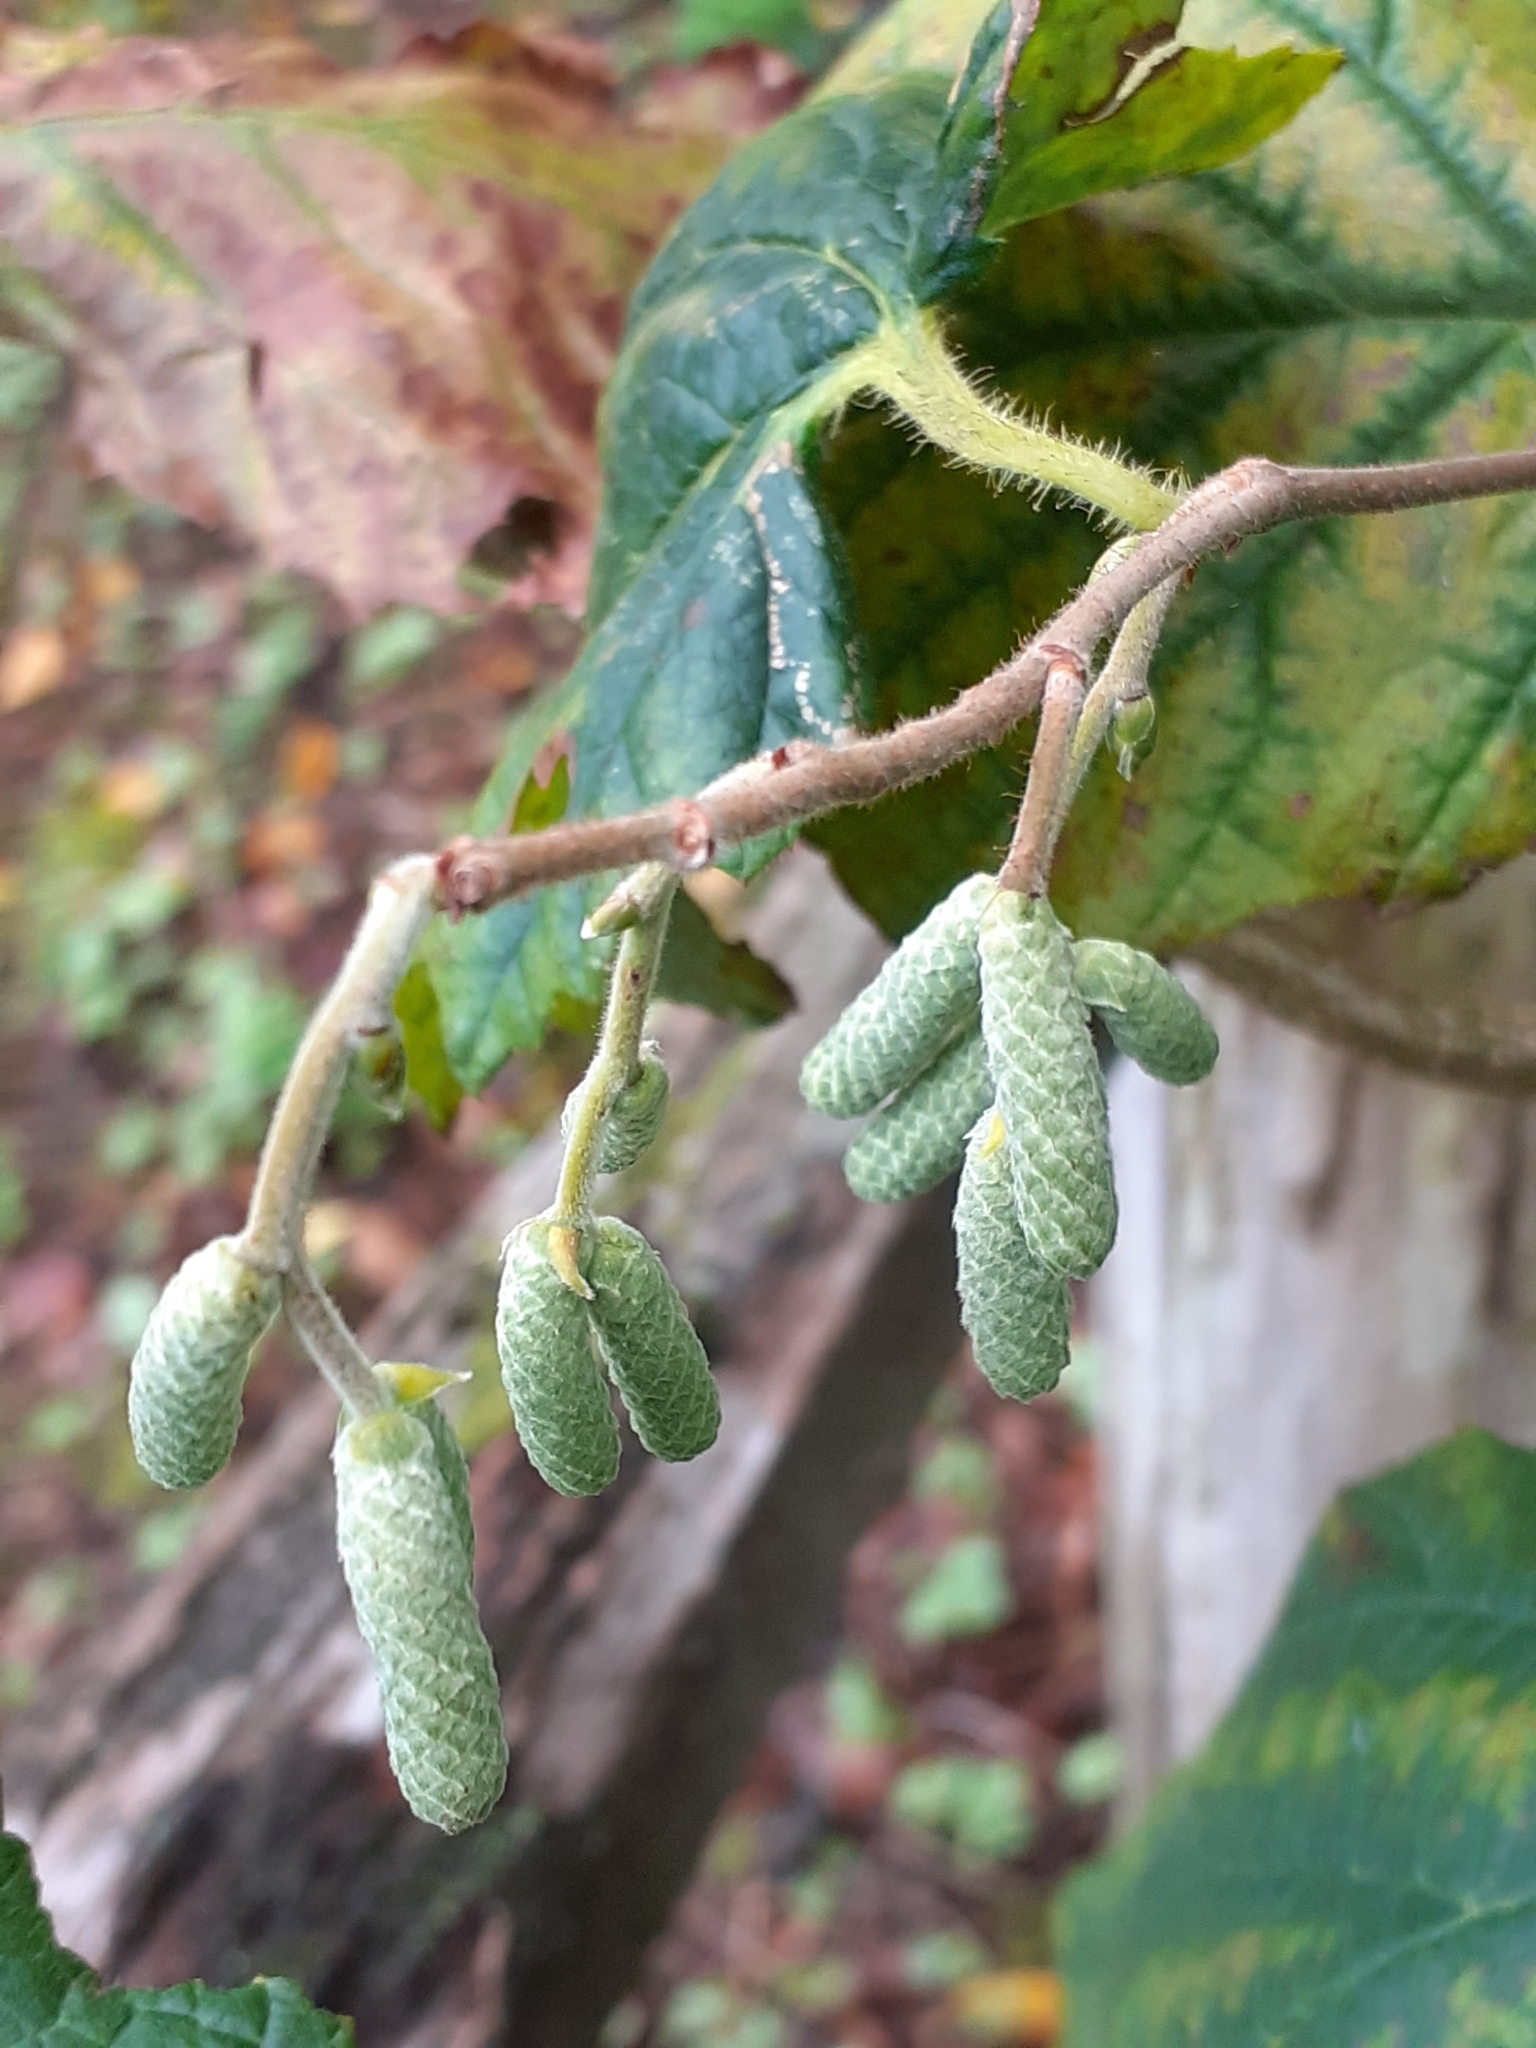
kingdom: Plantae
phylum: Tracheophyta
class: Magnoliopsida
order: Fagales
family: Betulaceae
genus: Corylus
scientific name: Corylus avellana
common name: European hazel
